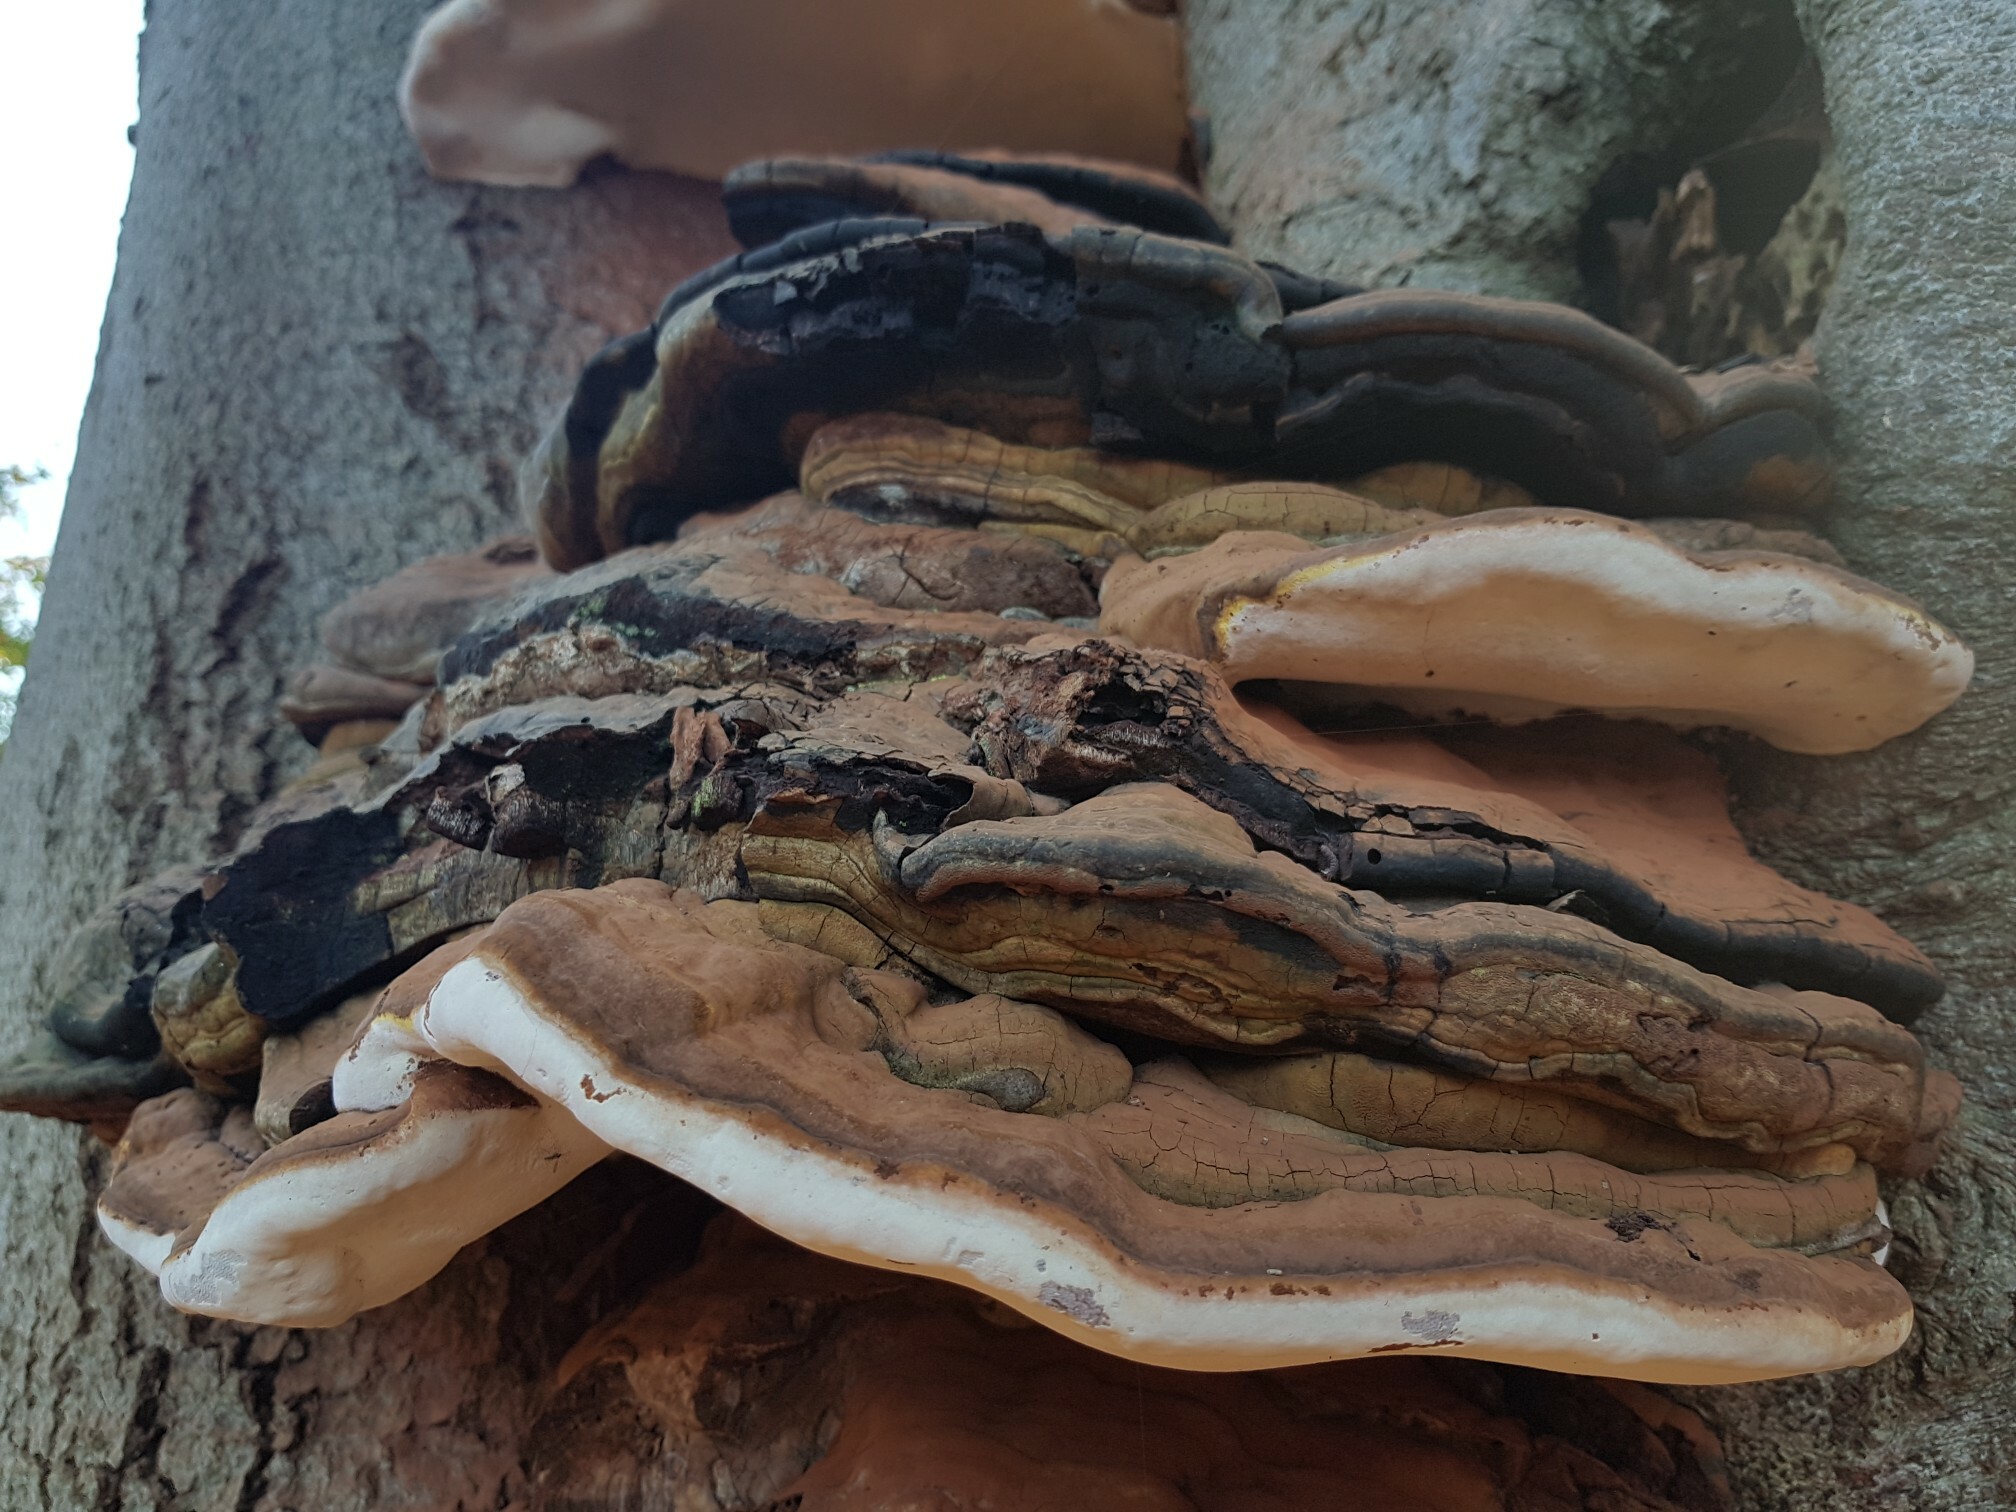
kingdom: Fungi
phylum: Basidiomycota
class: Agaricomycetes
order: Polyporales
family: Polyporaceae
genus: Ganoderma
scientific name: Ganoderma applanatum
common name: Artist's bracket
